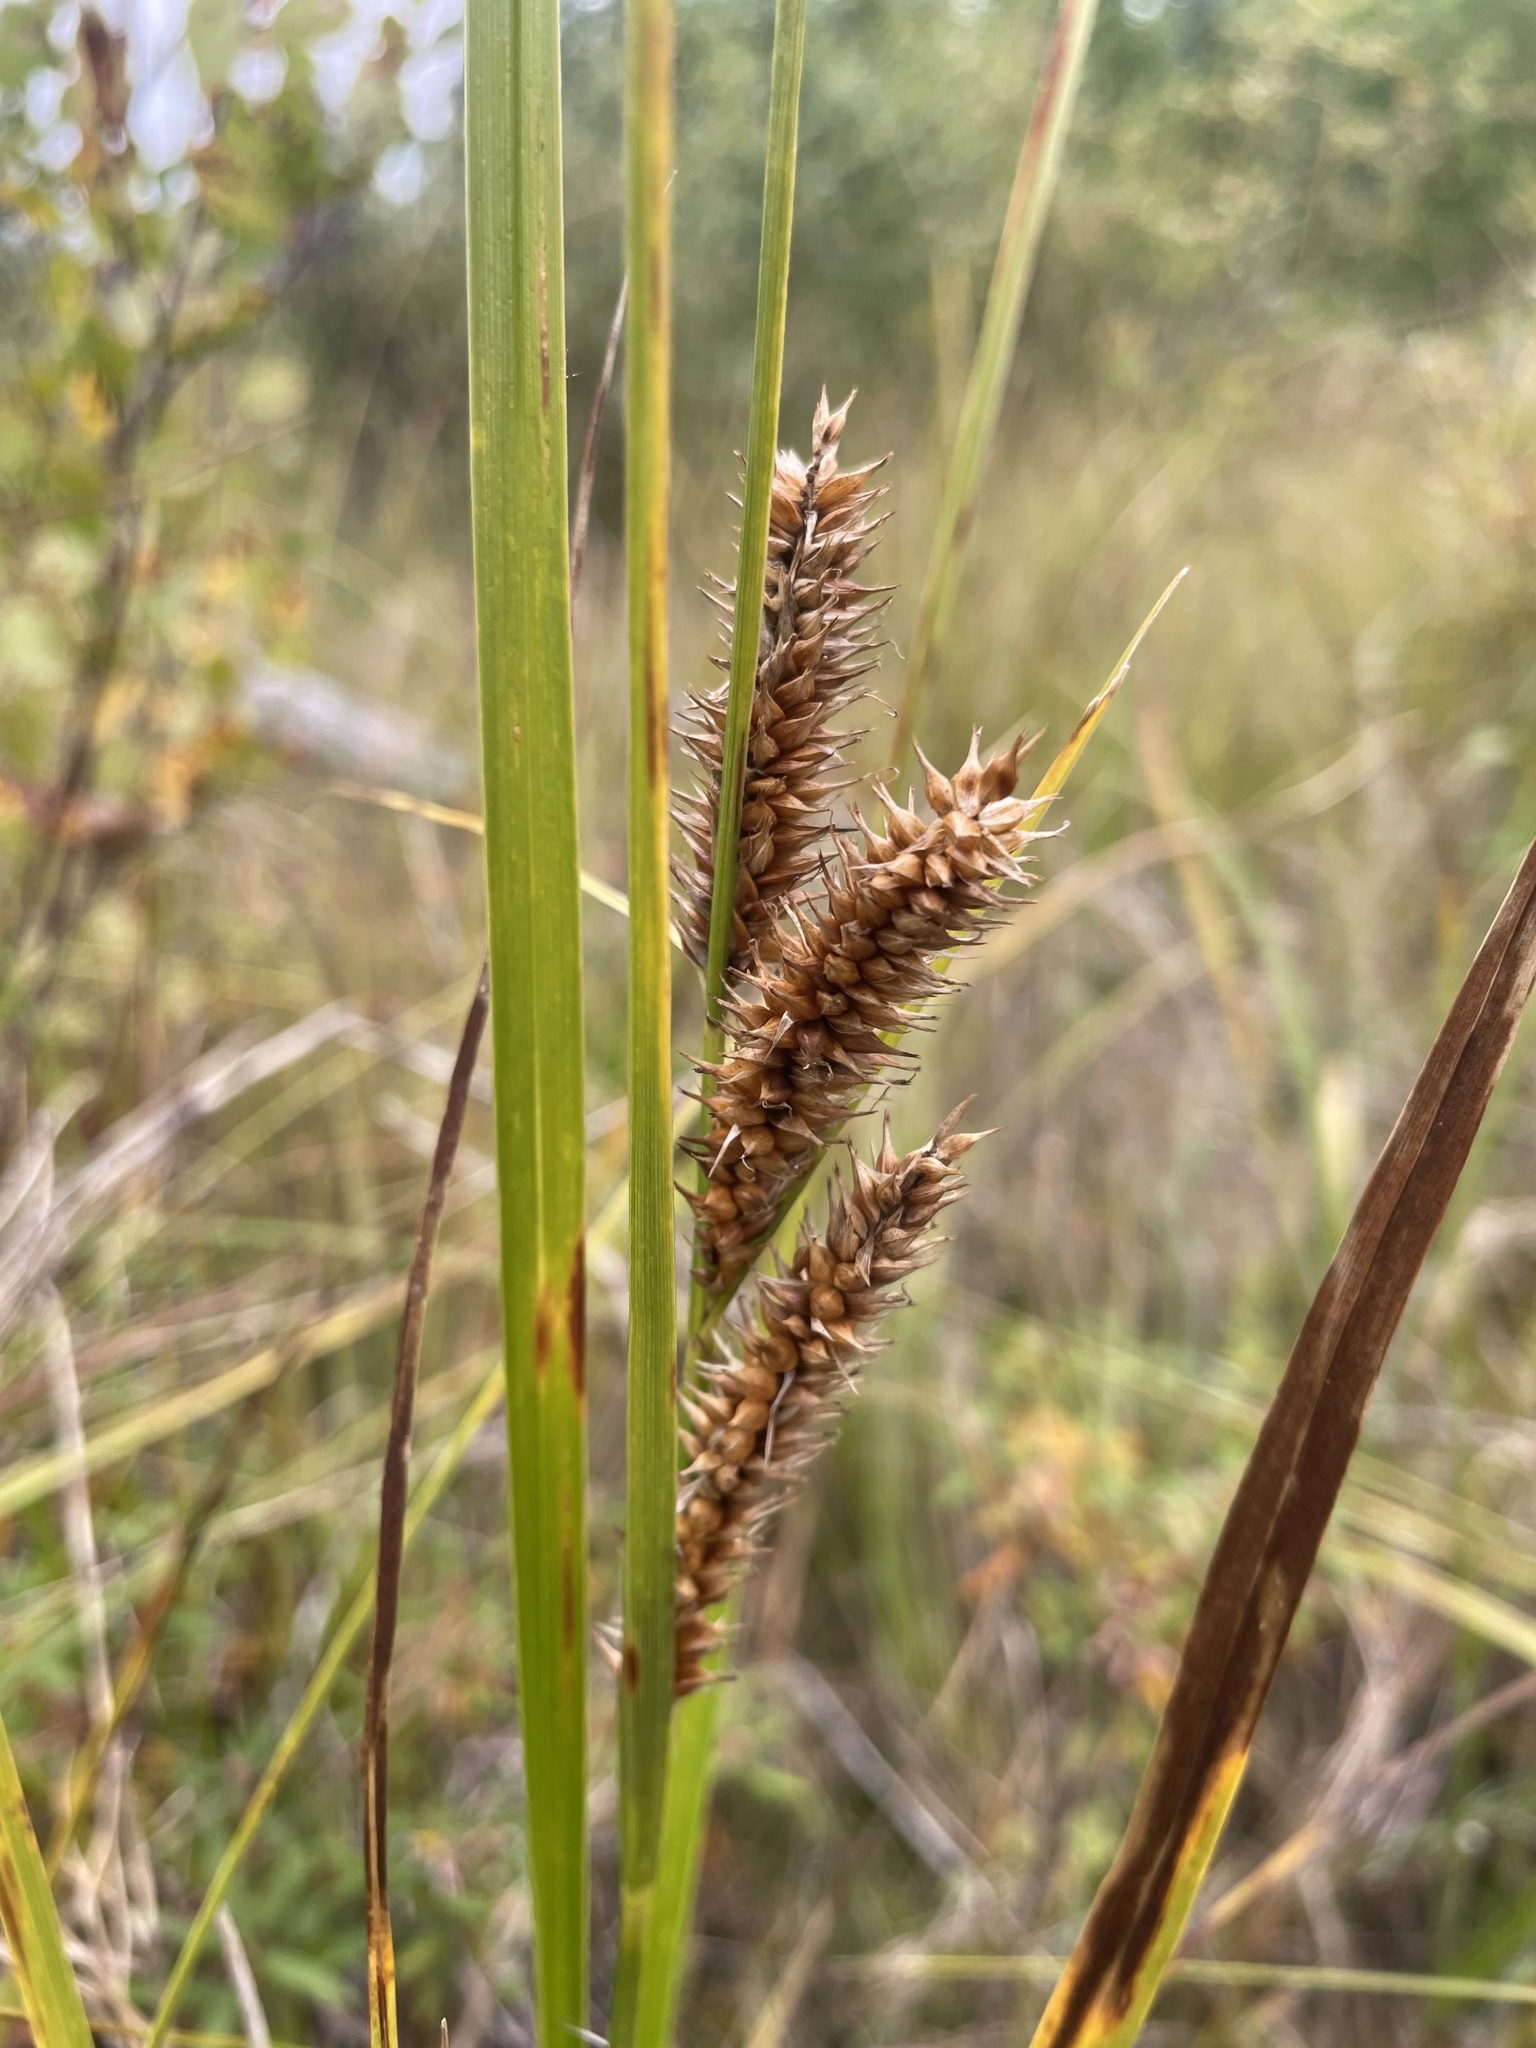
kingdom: Plantae
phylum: Tracheophyta
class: Liliopsida
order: Poales
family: Cyperaceae
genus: Carex
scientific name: Carex utriculata
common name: Beaked sedge
